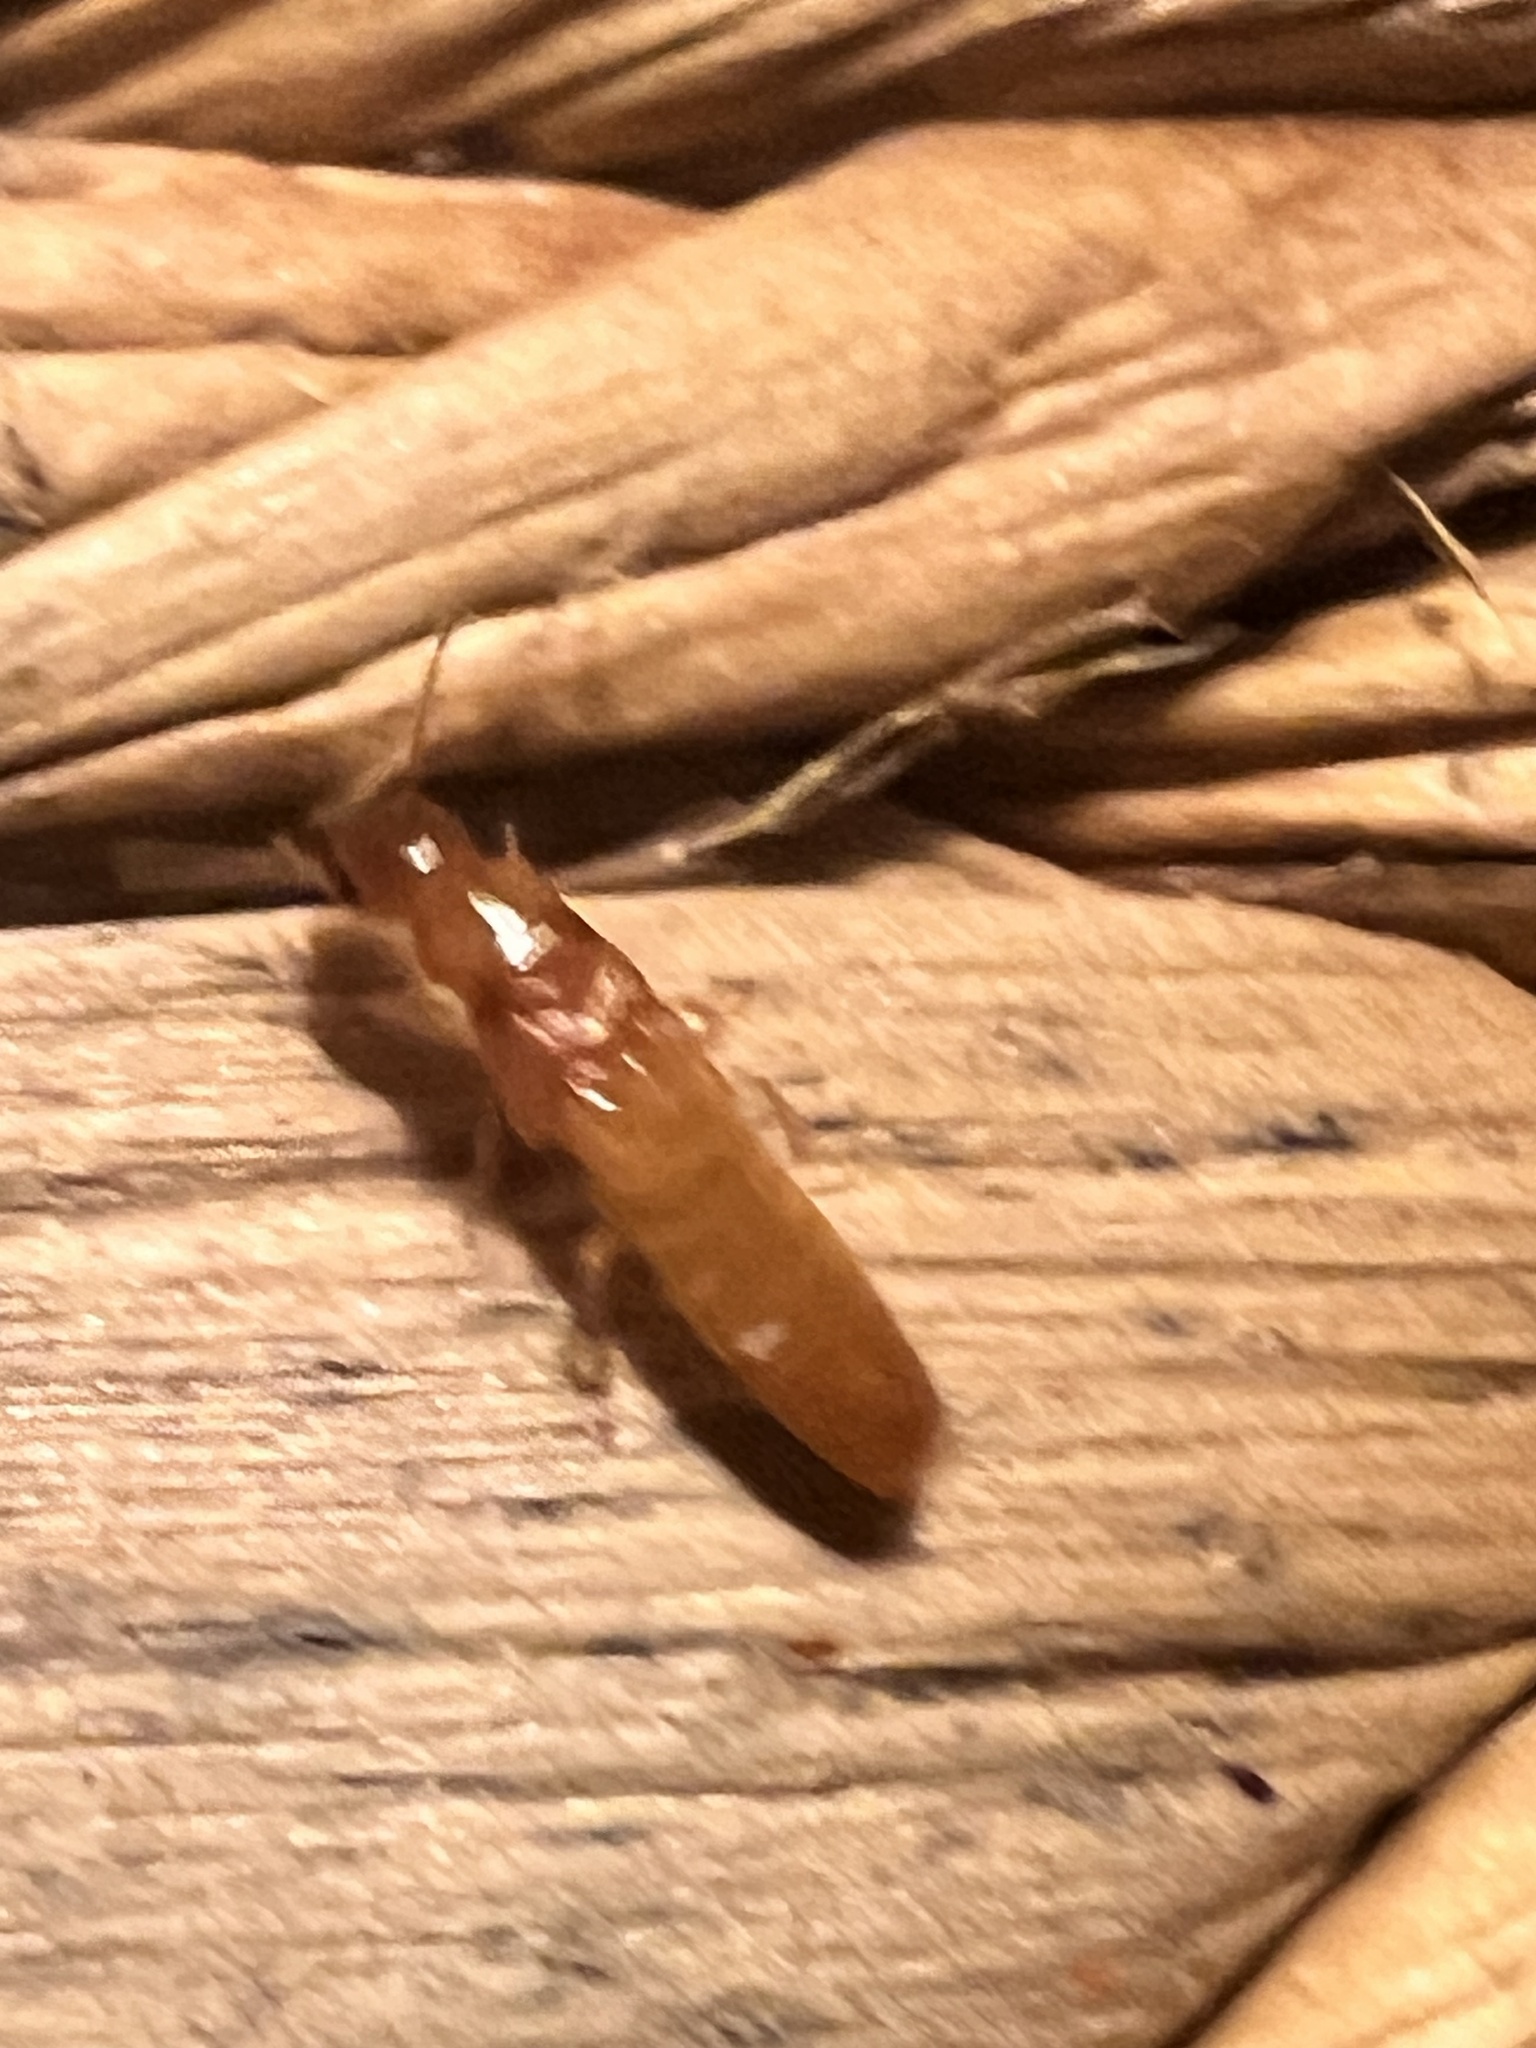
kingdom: Animalia
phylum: Arthropoda
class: Insecta
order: Blattodea
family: Kalotermitidae
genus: Incisitermes
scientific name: Incisitermes immigrans
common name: Termite
